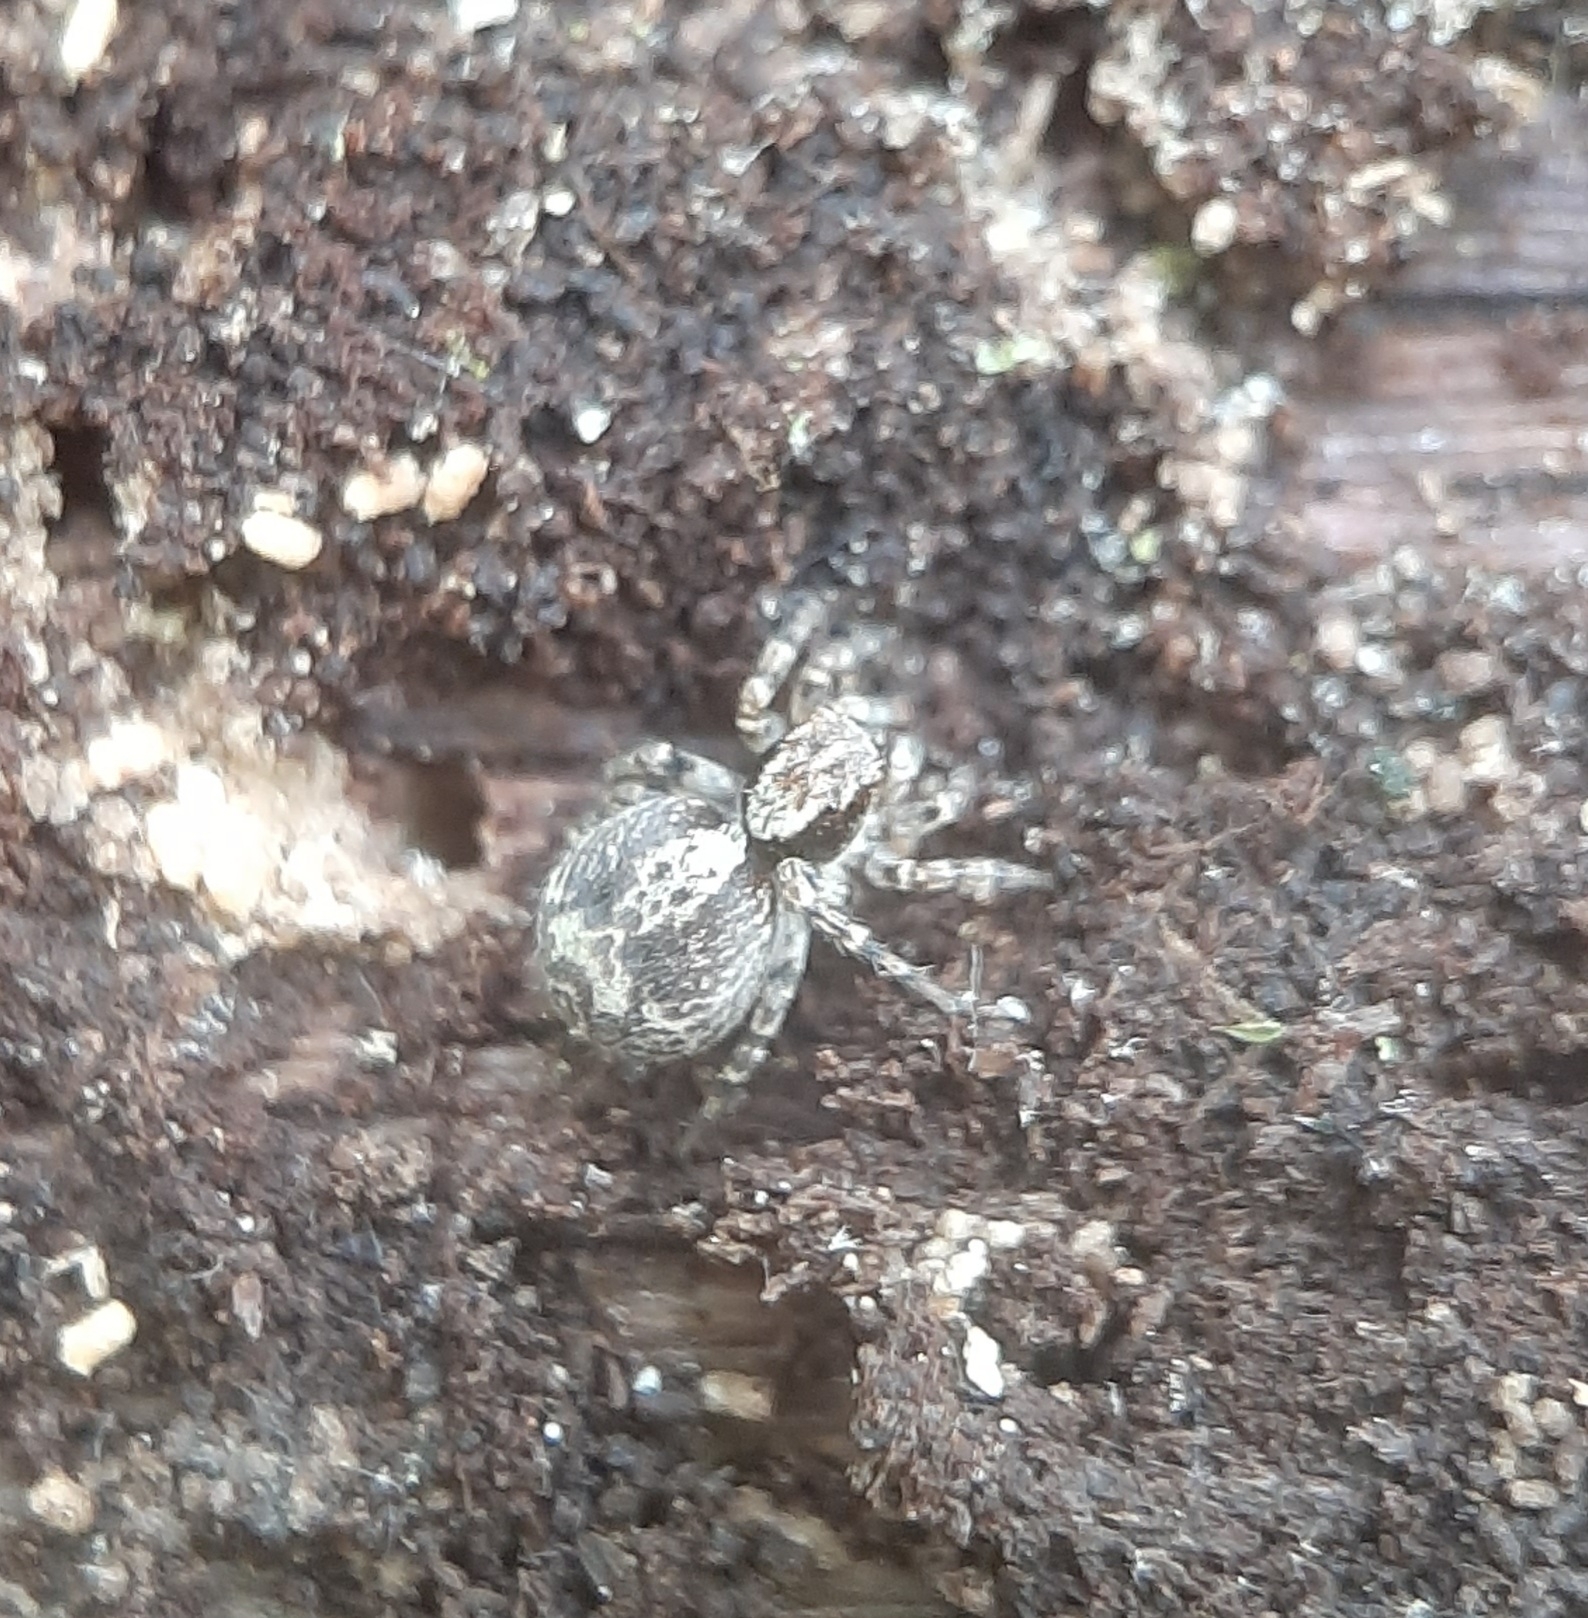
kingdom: Animalia
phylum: Arthropoda
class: Arachnida
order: Araneae
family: Salticidae
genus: Naphrys
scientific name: Naphrys pulex
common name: Flea jumping spider
